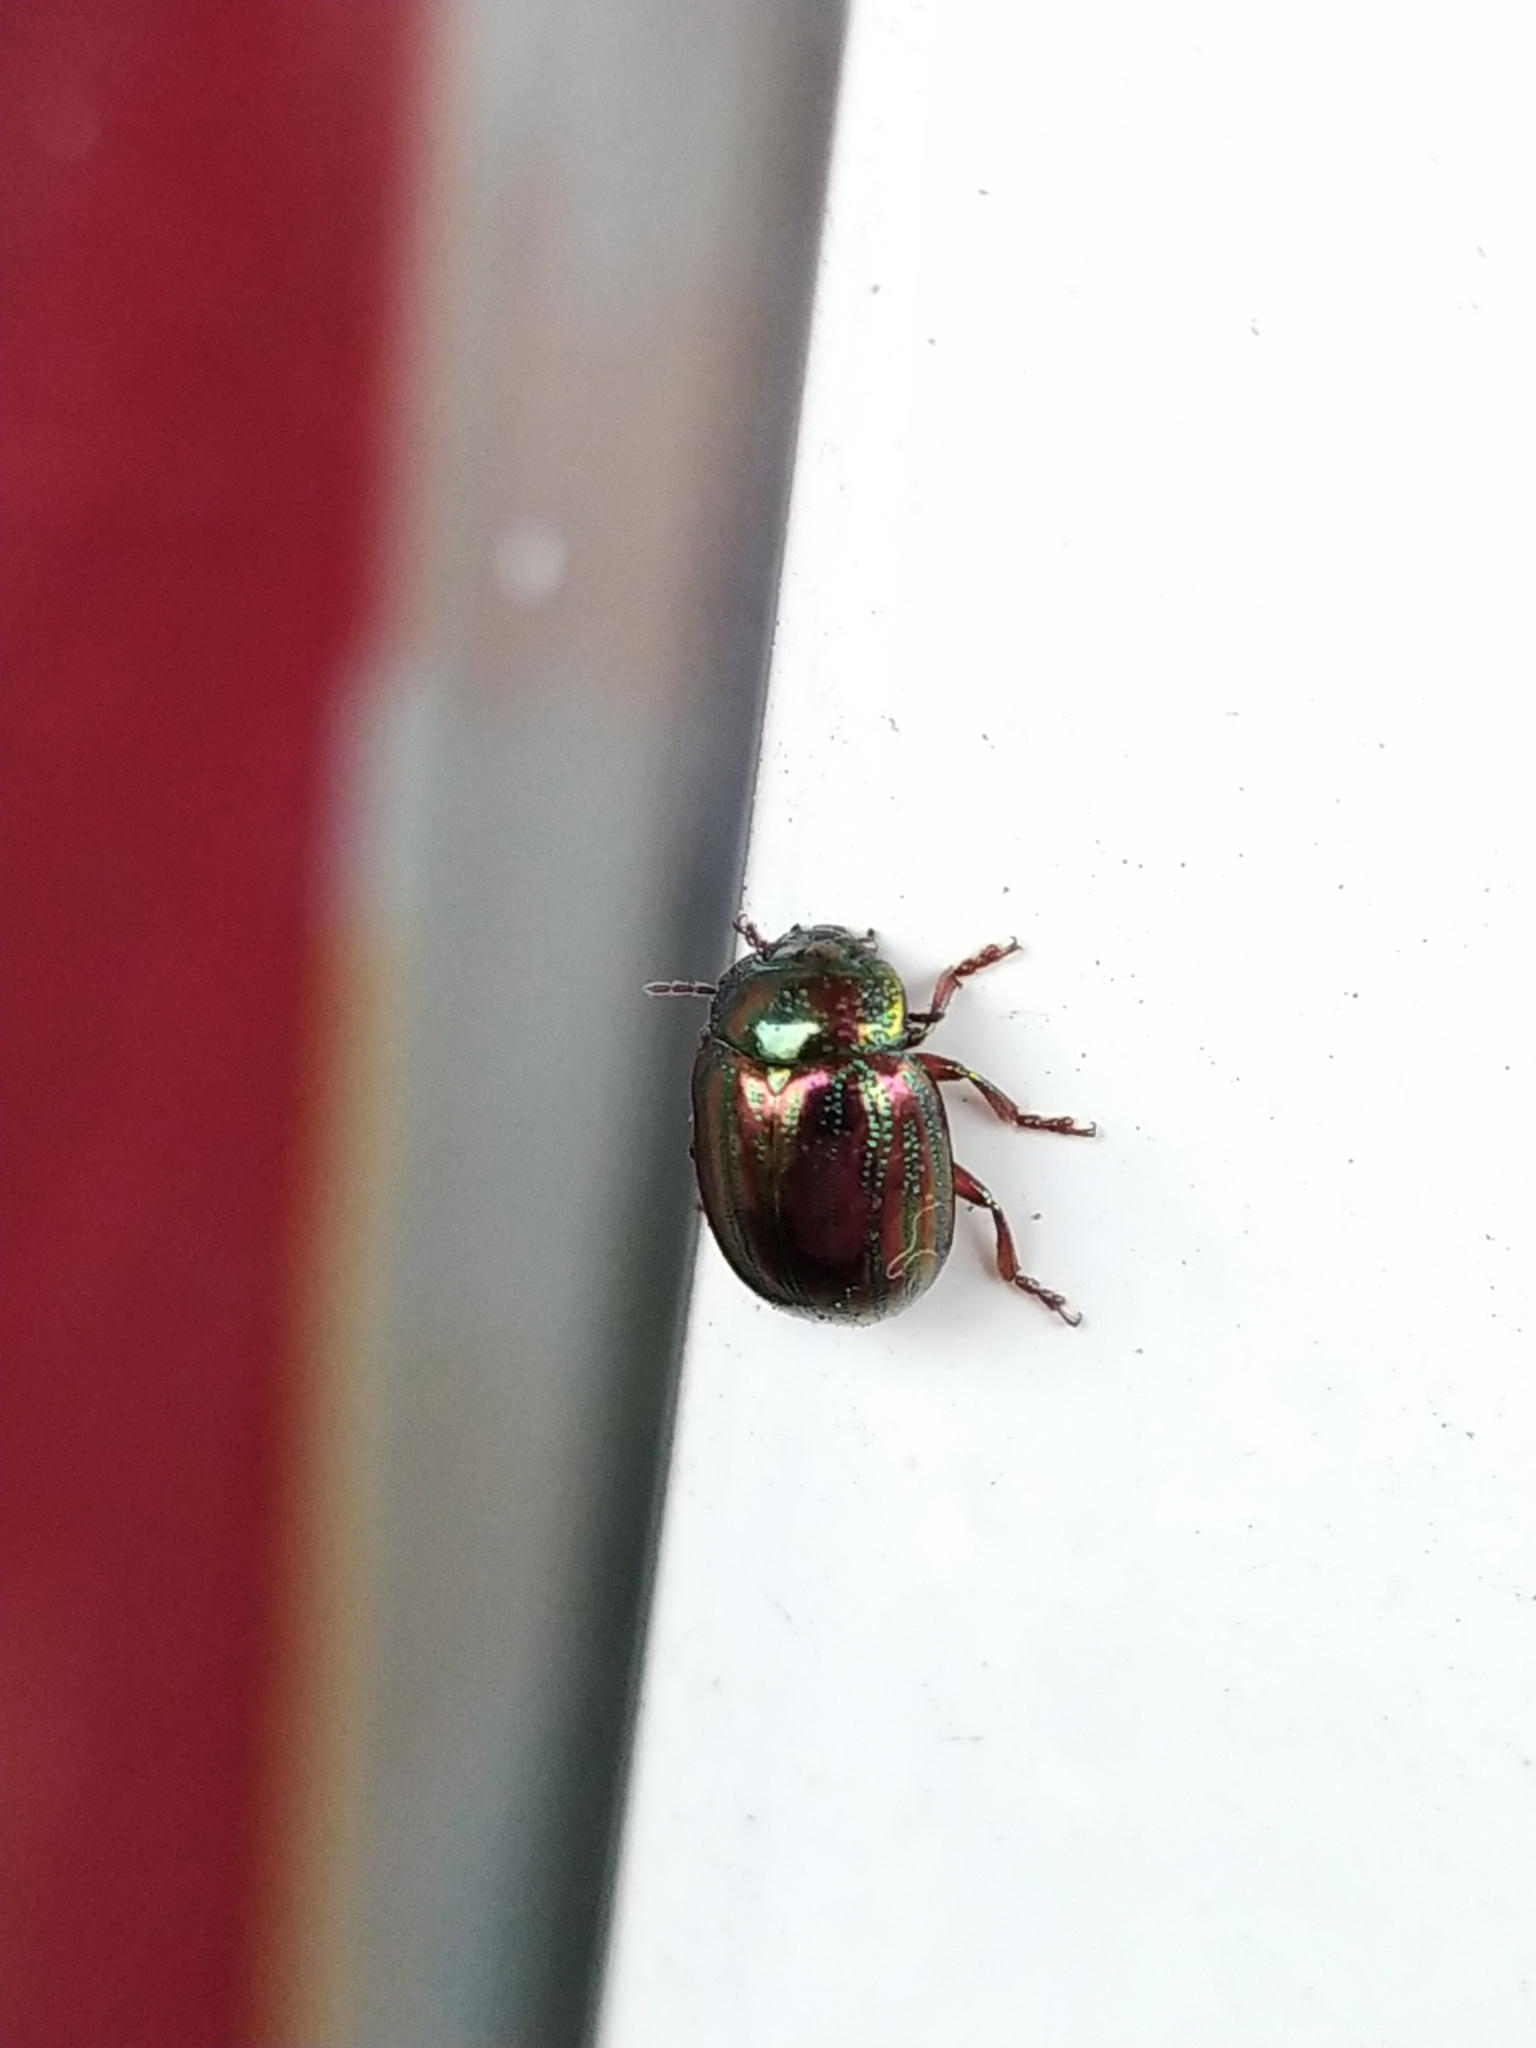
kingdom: Animalia
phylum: Arthropoda
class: Insecta
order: Coleoptera
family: Chrysomelidae
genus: Chrysolina
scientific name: Chrysolina americana
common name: Rosemary beetle
